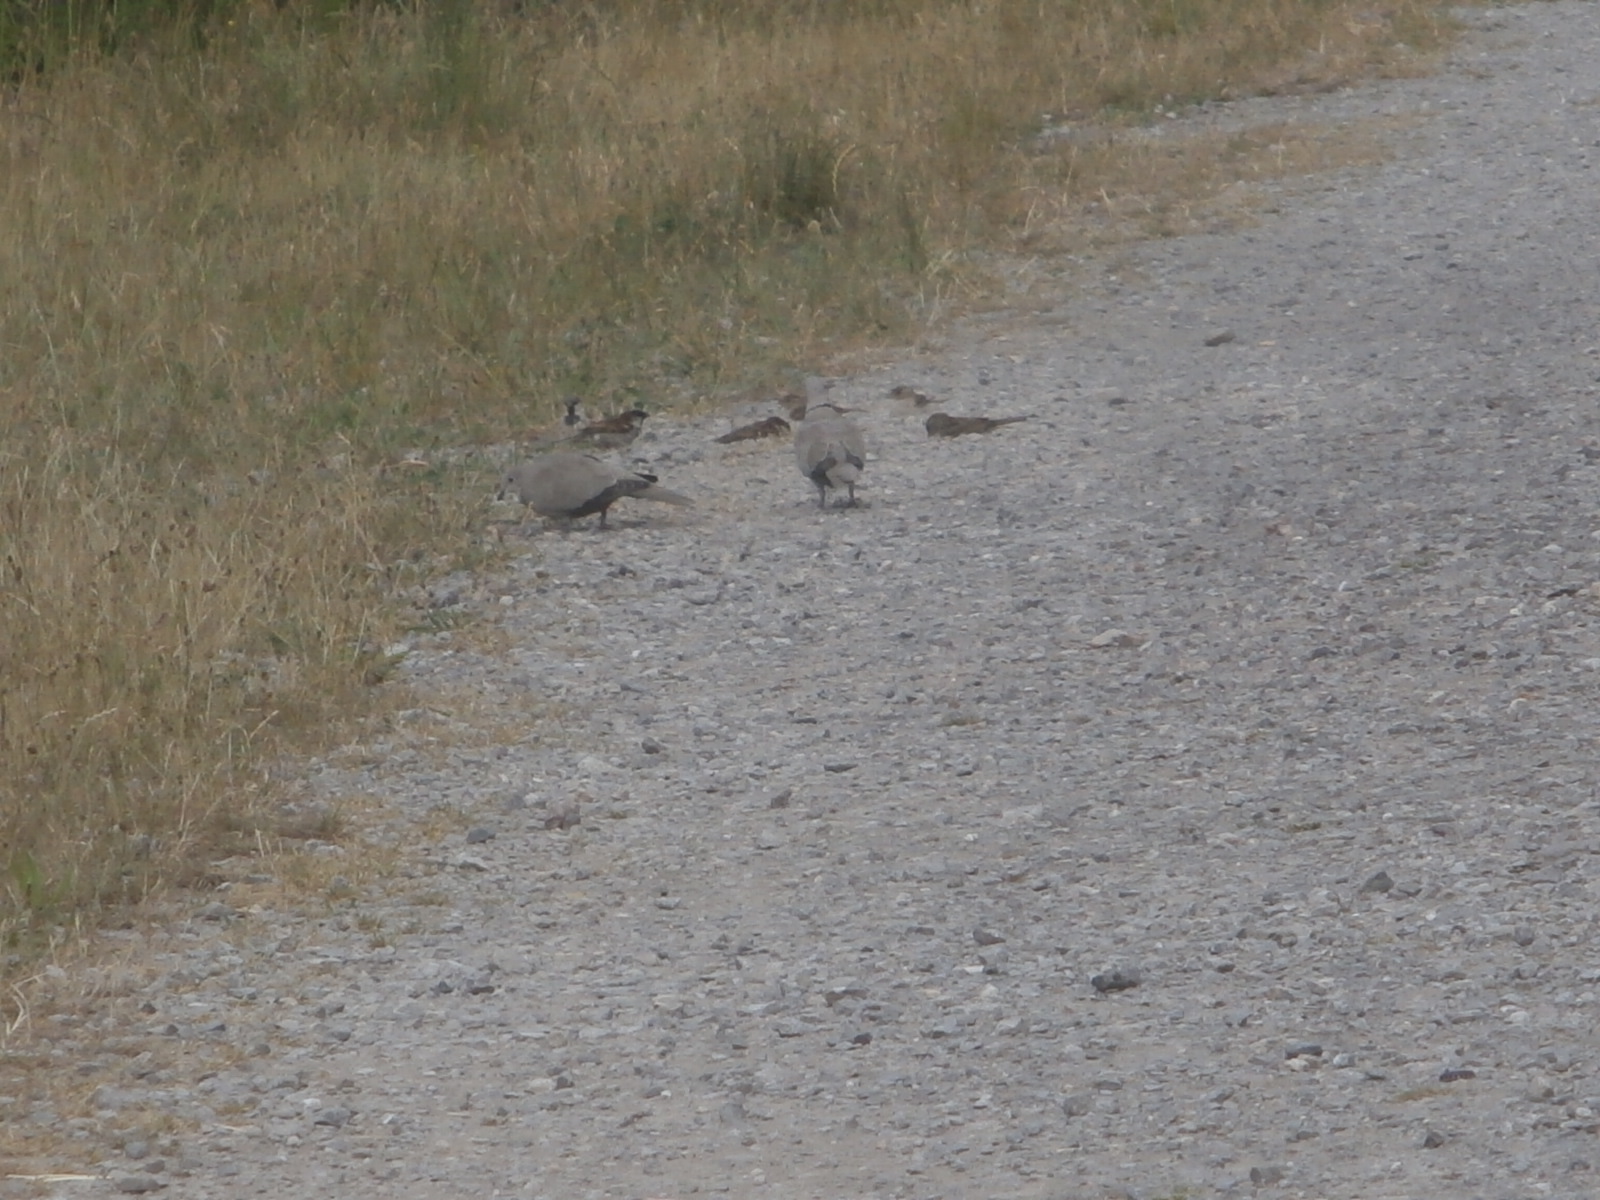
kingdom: Animalia
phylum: Chordata
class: Aves
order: Columbiformes
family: Columbidae
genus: Streptopelia
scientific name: Streptopelia decaocto
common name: Eurasian collared dove
